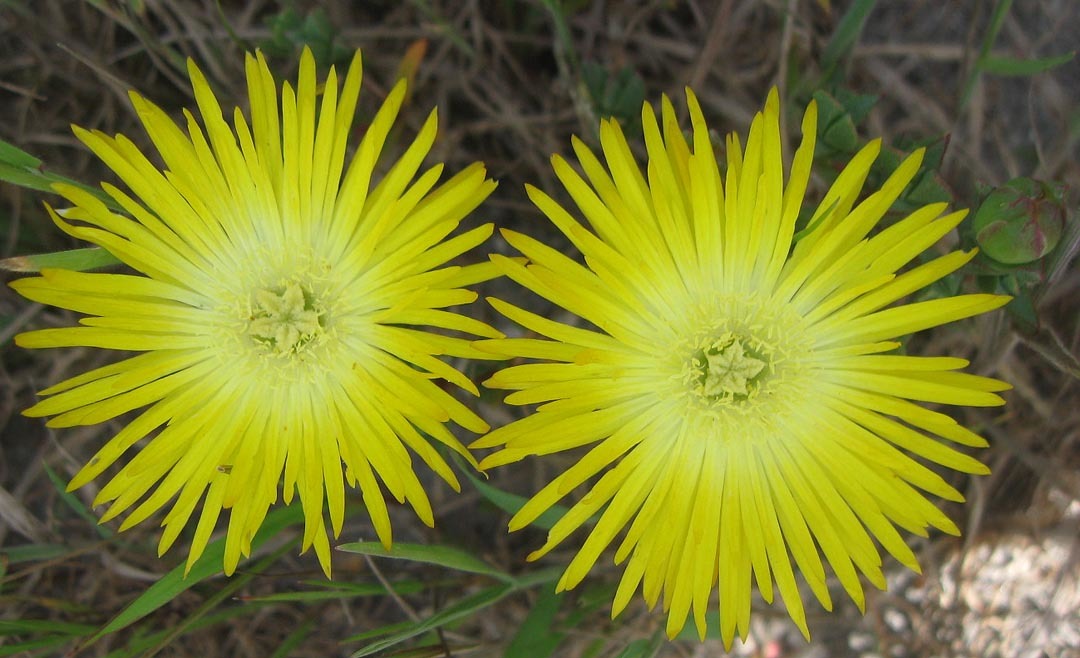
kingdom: Plantae
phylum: Tracheophyta
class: Magnoliopsida
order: Caryophyllales
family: Aizoaceae
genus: Lampranthus
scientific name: Lampranthus glaucus
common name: Noonflower
